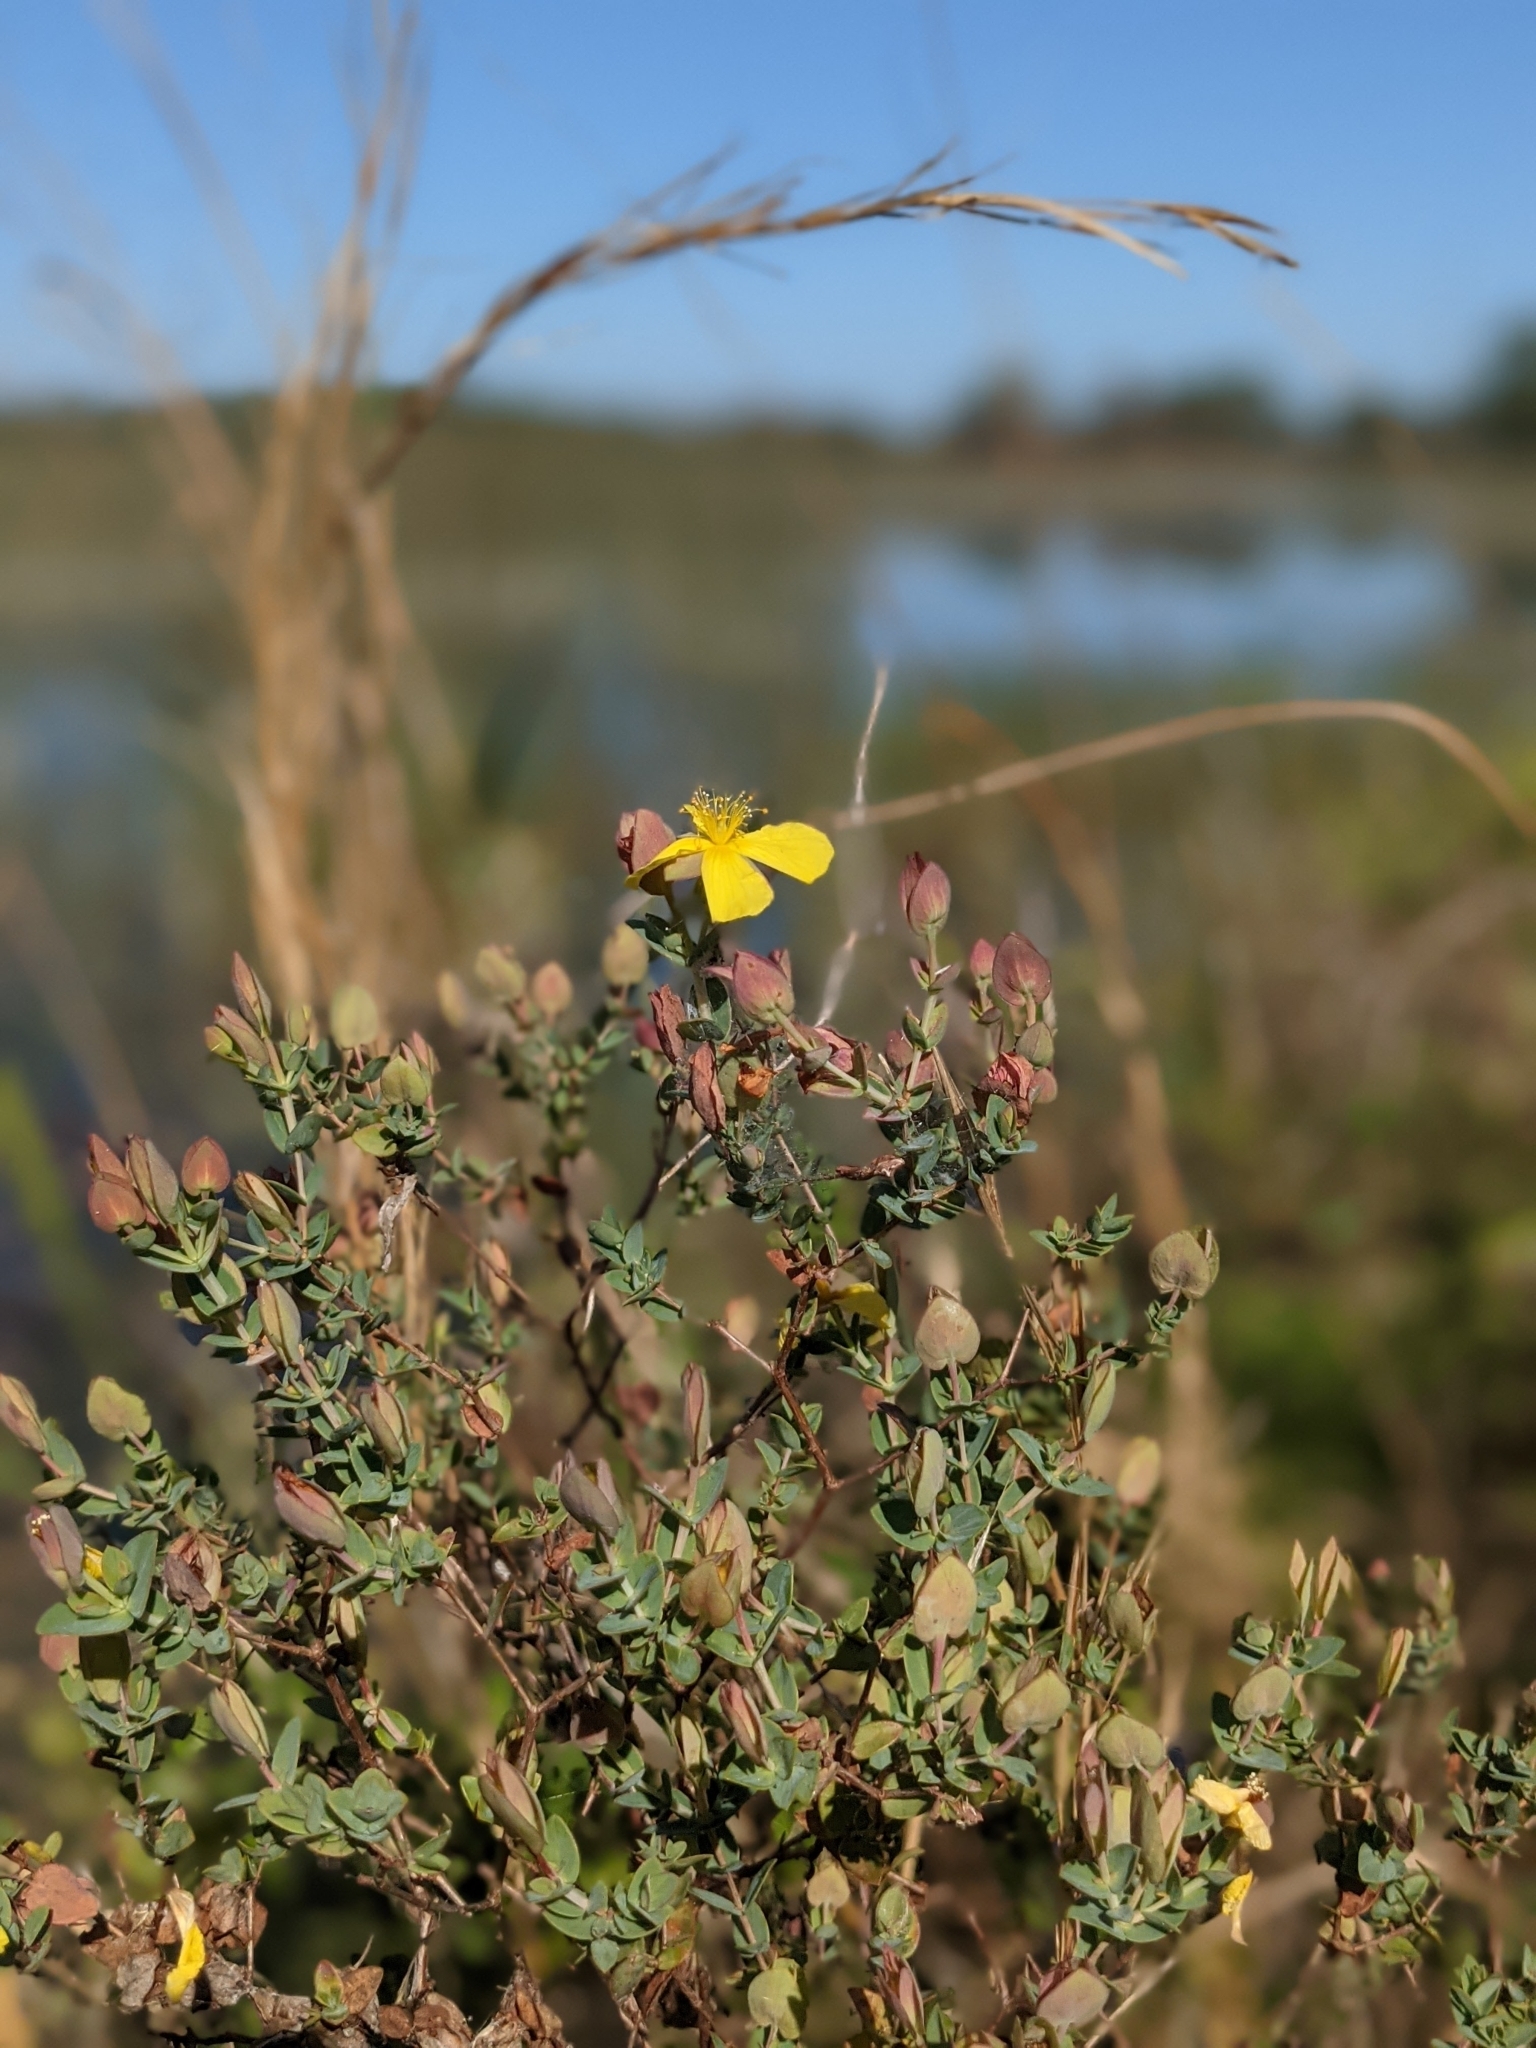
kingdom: Plantae
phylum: Tracheophyta
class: Magnoliopsida
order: Malpighiales
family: Hypericaceae
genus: Hypericum
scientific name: Hypericum tetrapetalum
